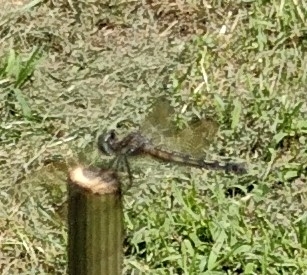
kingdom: Animalia
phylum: Arthropoda
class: Insecta
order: Odonata
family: Libellulidae
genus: Pachydiplax
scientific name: Pachydiplax longipennis
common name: Blue dasher
